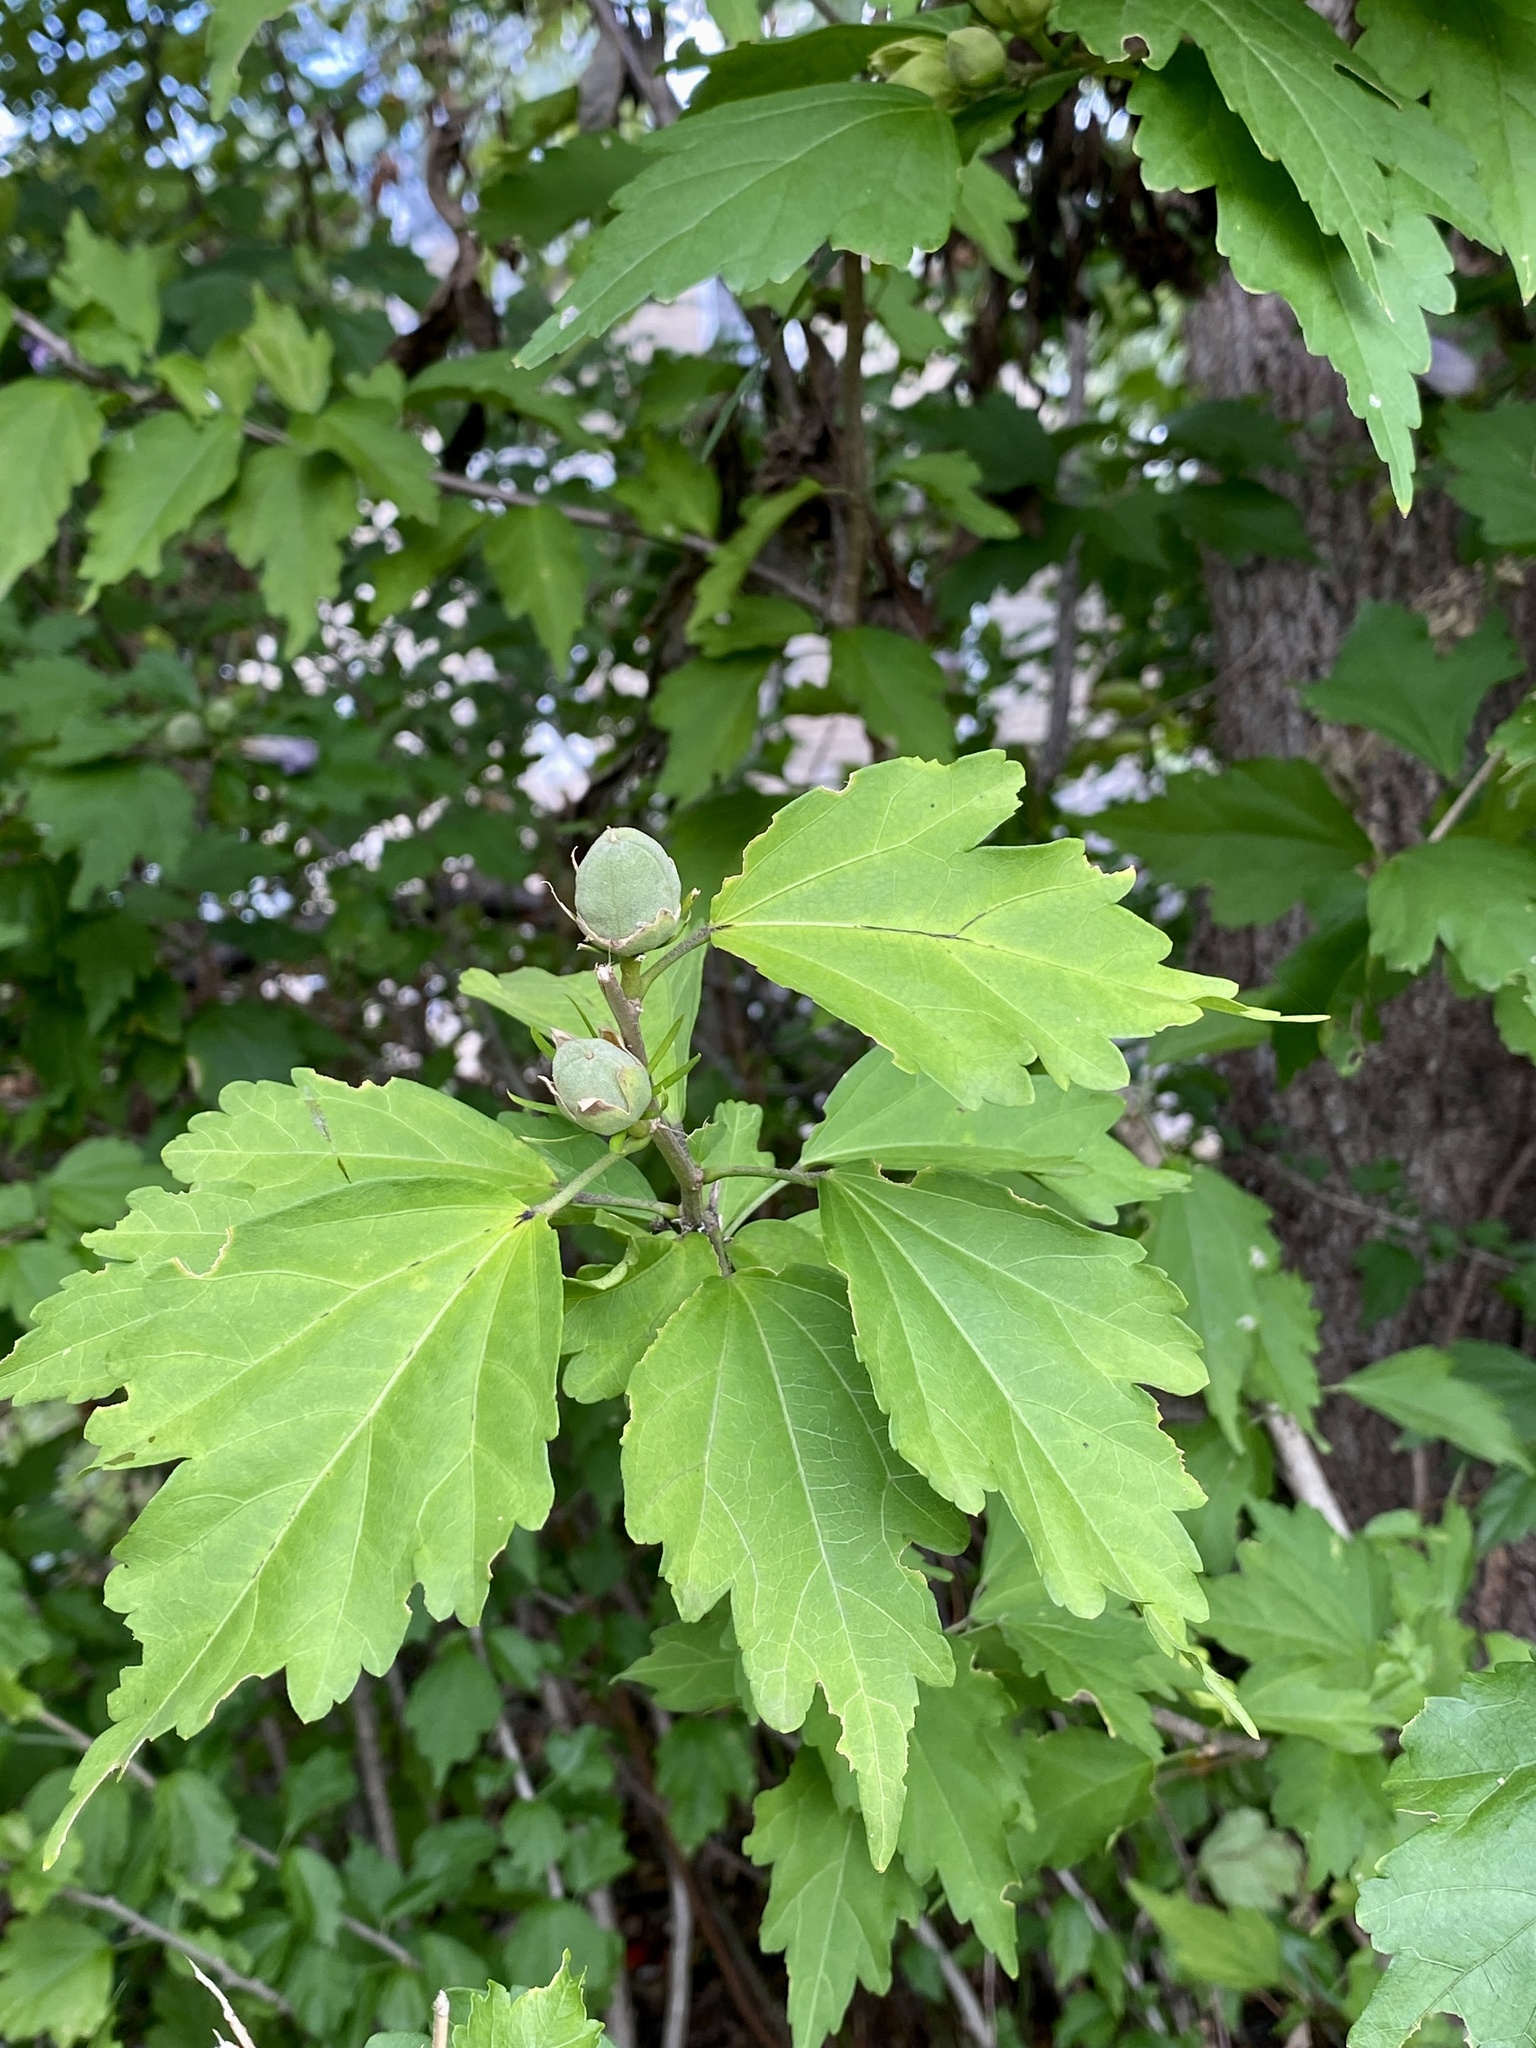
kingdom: Plantae
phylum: Tracheophyta
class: Magnoliopsida
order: Malvales
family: Malvaceae
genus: Hibiscus
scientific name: Hibiscus syriacus
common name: Syrian ketmia
